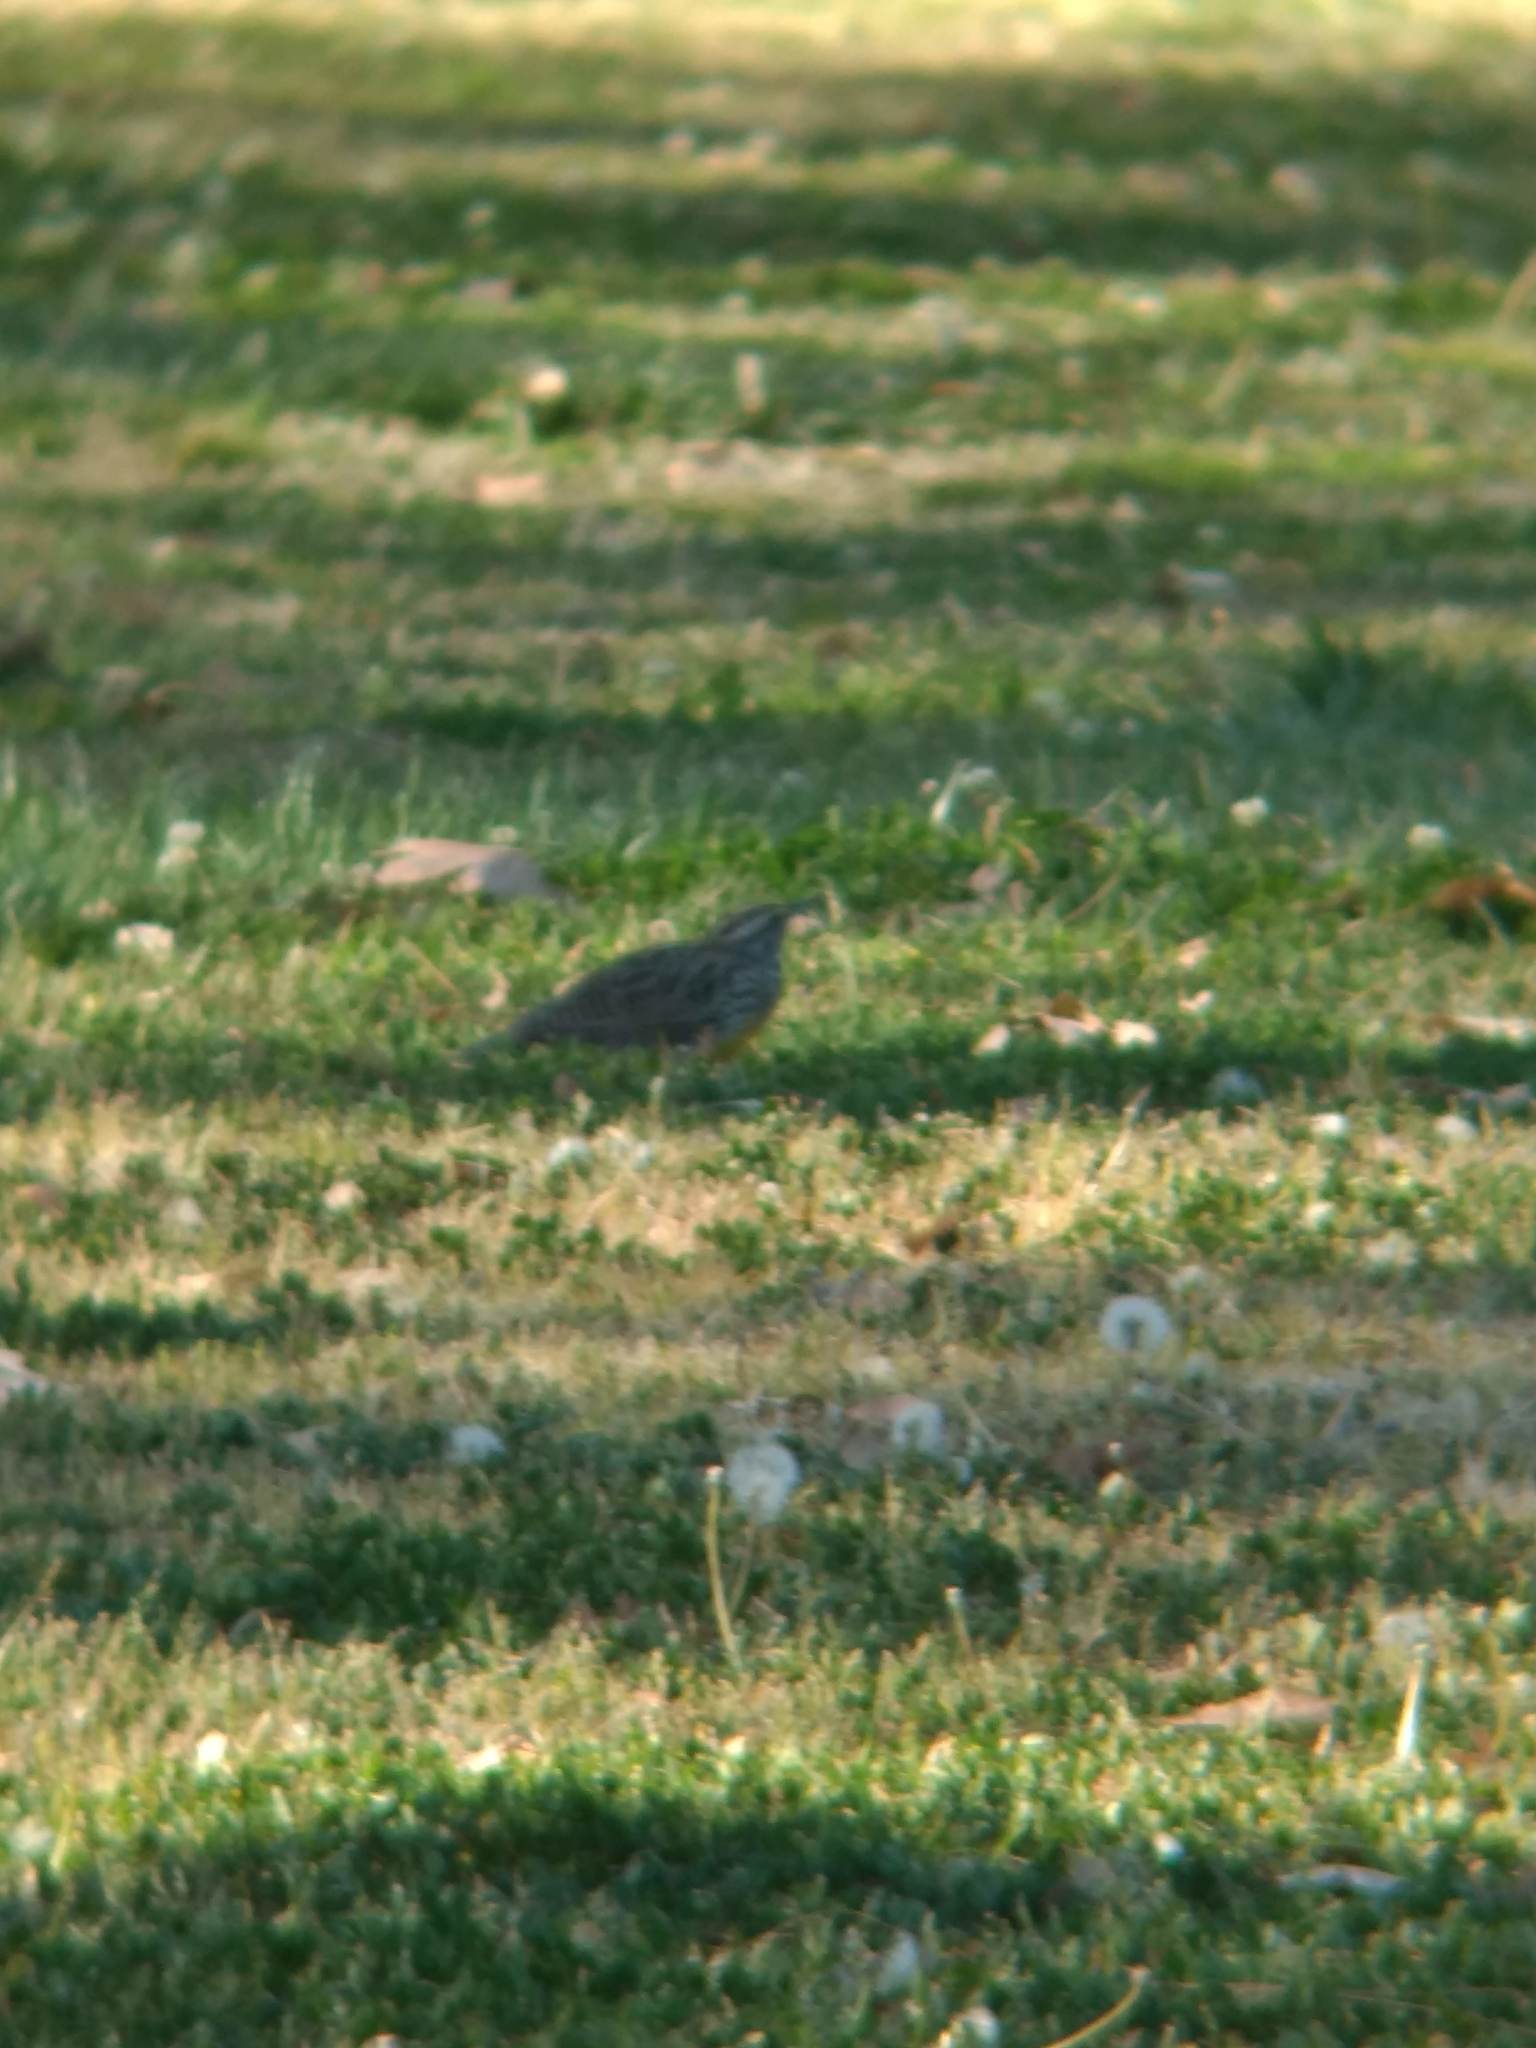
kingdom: Animalia
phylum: Chordata
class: Aves
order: Passeriformes
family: Icteridae
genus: Sturnella
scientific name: Sturnella neglecta
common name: Western meadowlark
